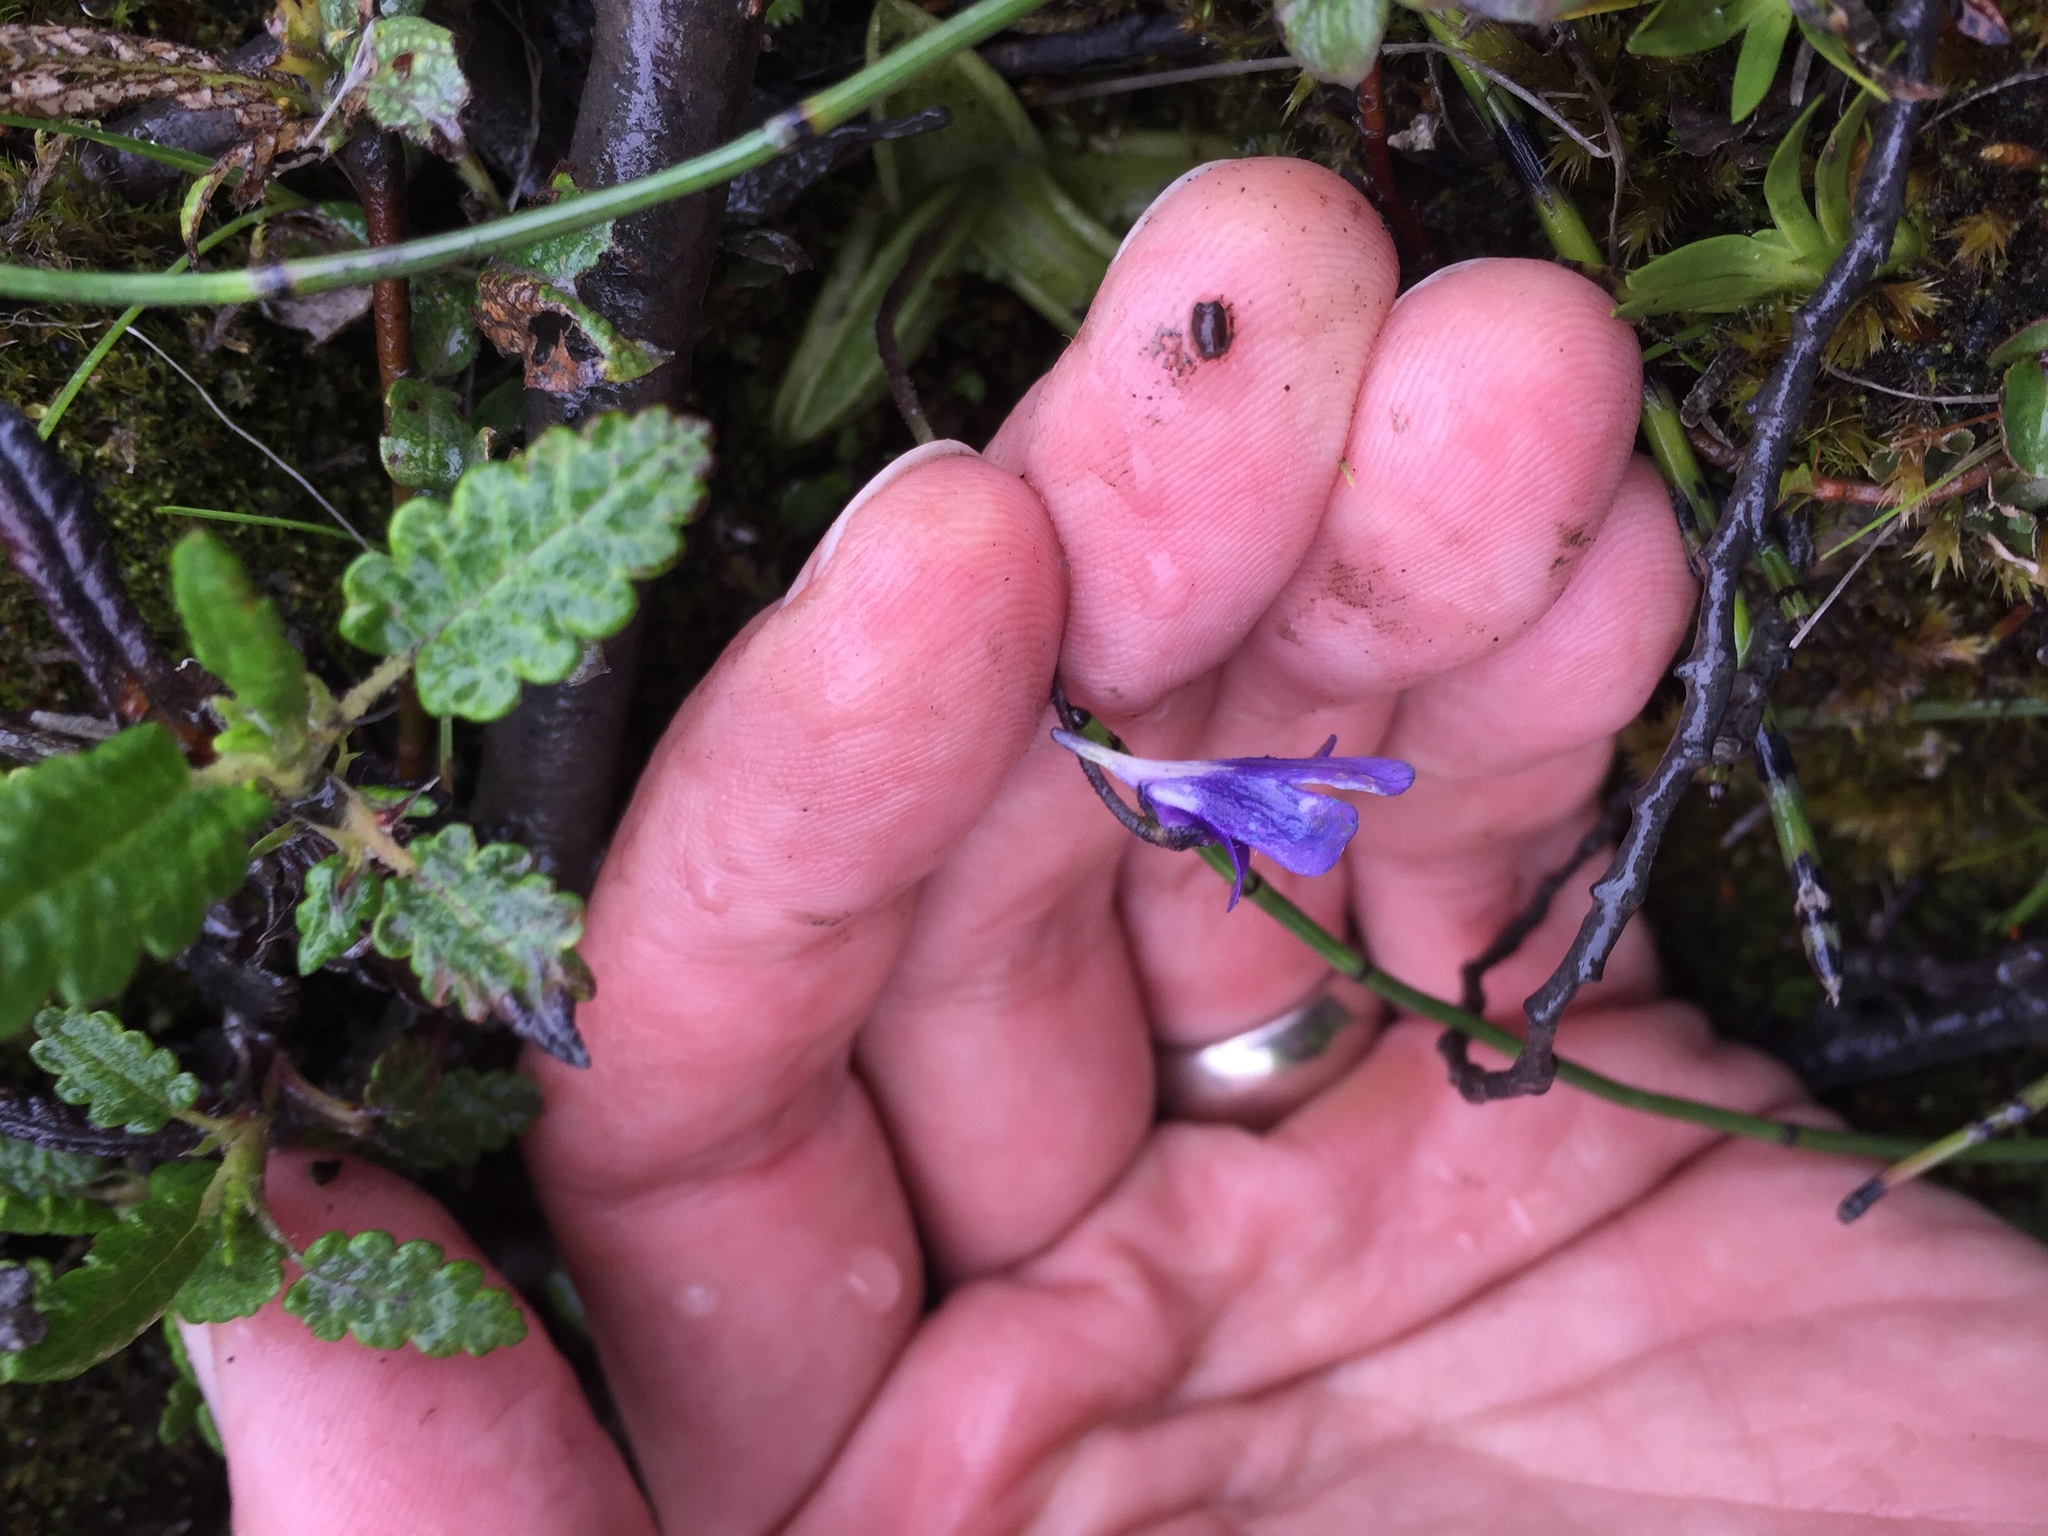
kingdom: Plantae
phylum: Tracheophyta
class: Magnoliopsida
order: Lamiales
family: Lentibulariaceae
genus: Pinguicula
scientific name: Pinguicula vulgaris
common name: Common butterwort
